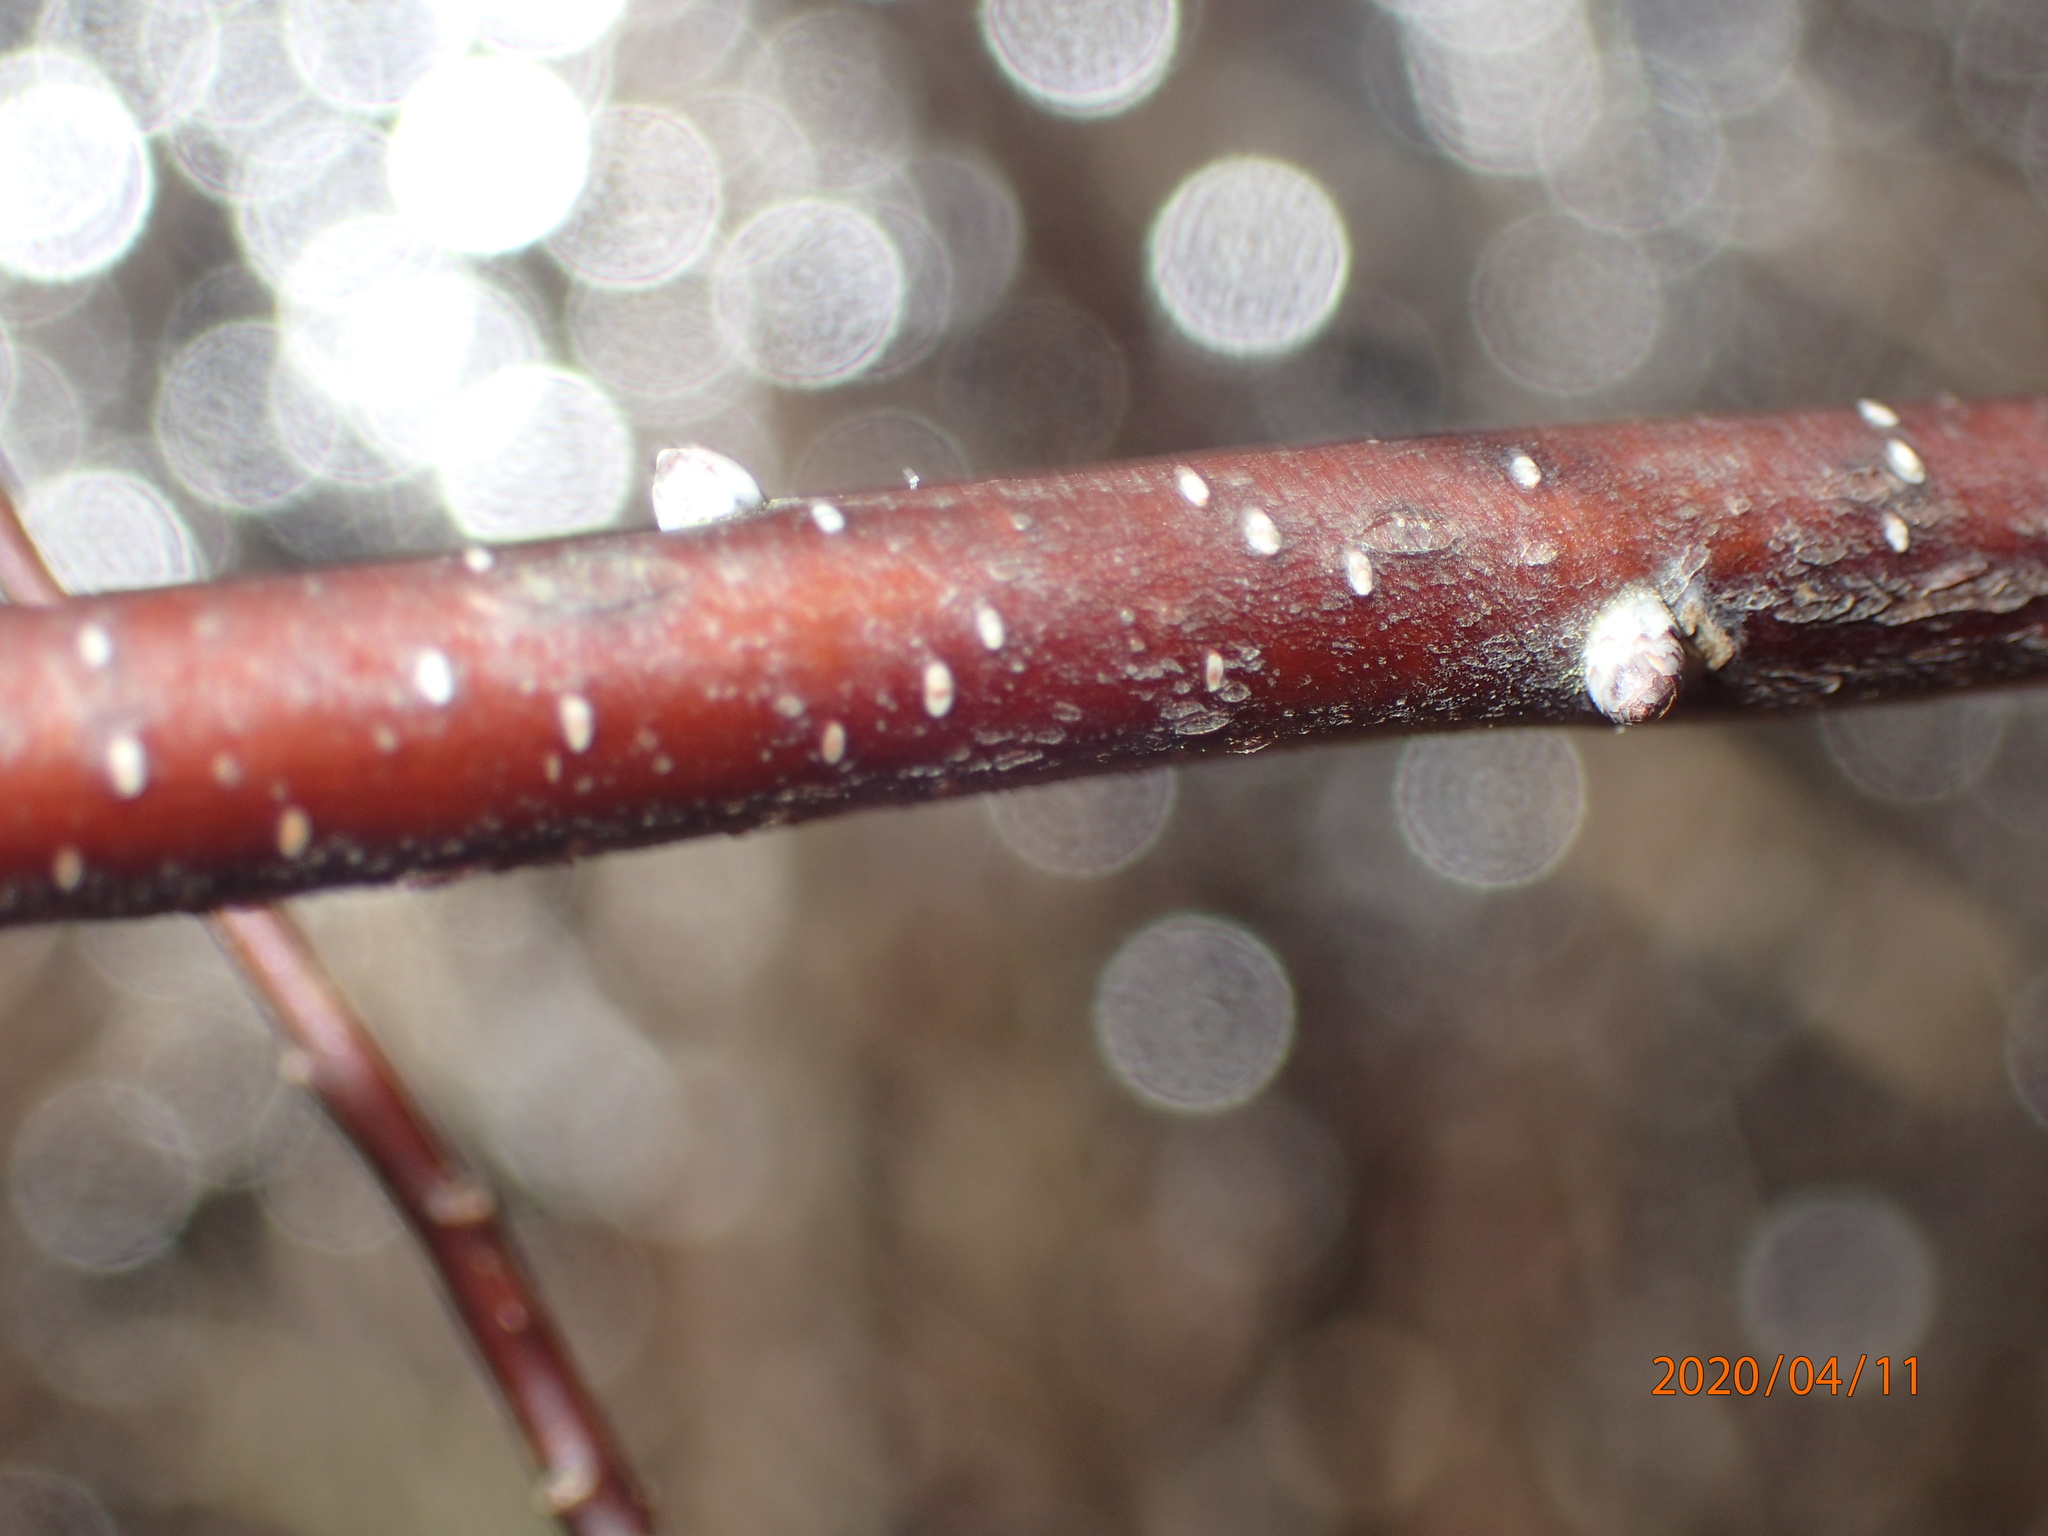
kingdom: Plantae
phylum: Tracheophyta
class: Magnoliopsida
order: Fagales
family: Myricaceae
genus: Myrica
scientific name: Myrica gale
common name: Sweet gale
